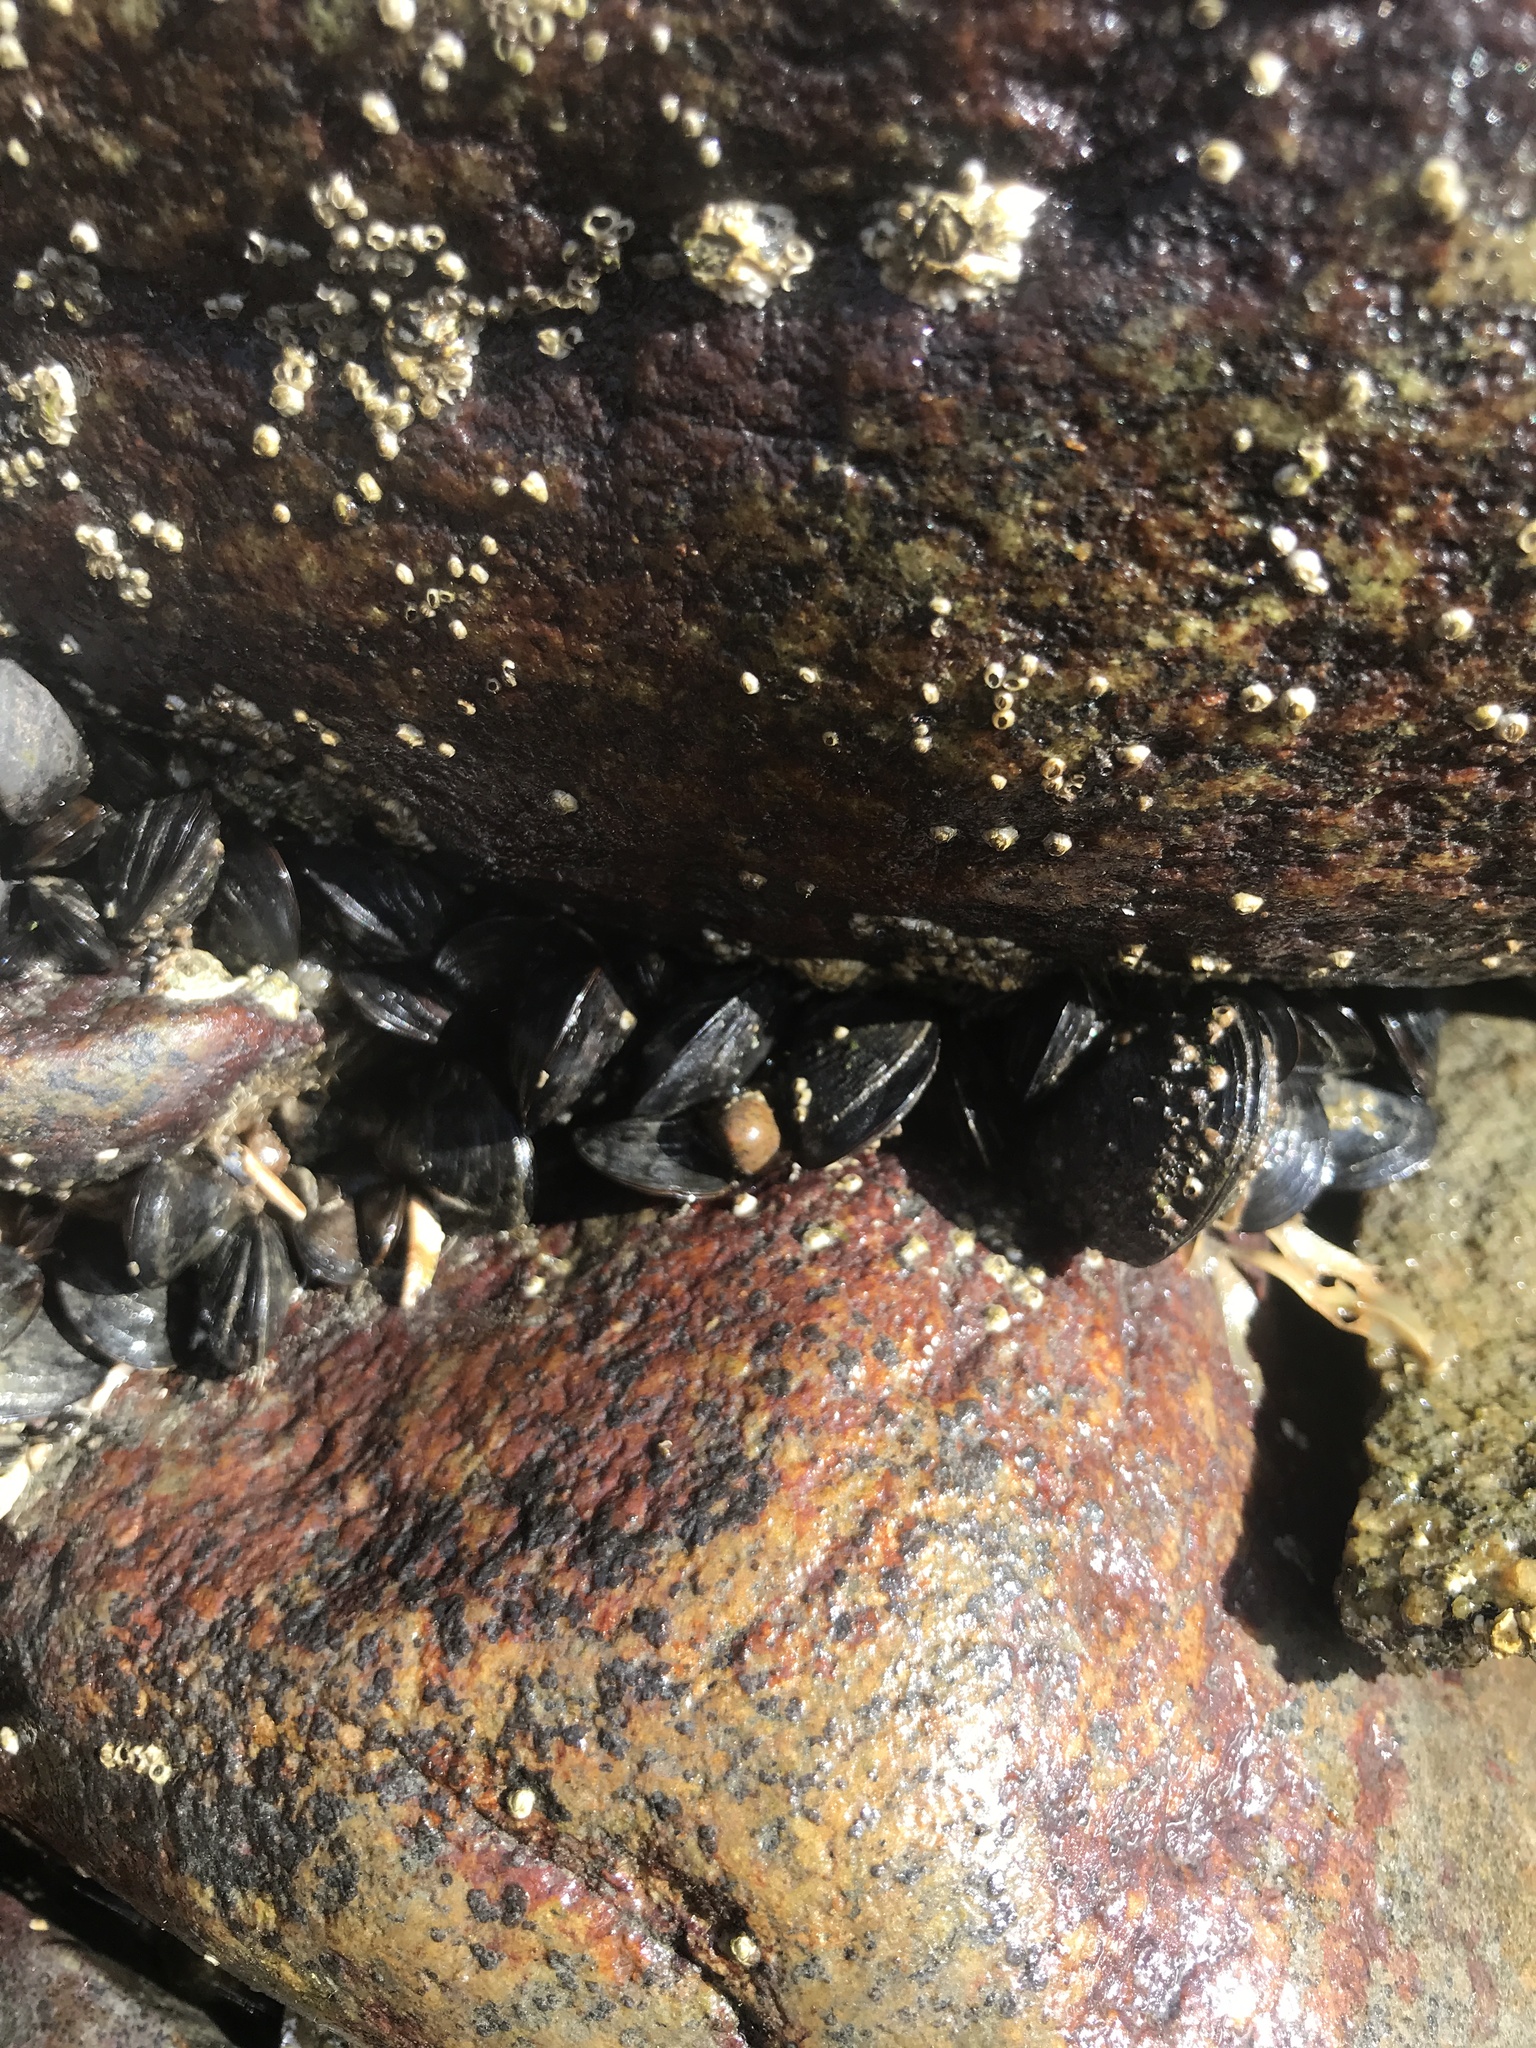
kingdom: Animalia
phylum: Mollusca
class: Bivalvia
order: Mytilida
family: Mytilidae
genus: Mytilus
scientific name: Mytilus edulis
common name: Blue mussel
